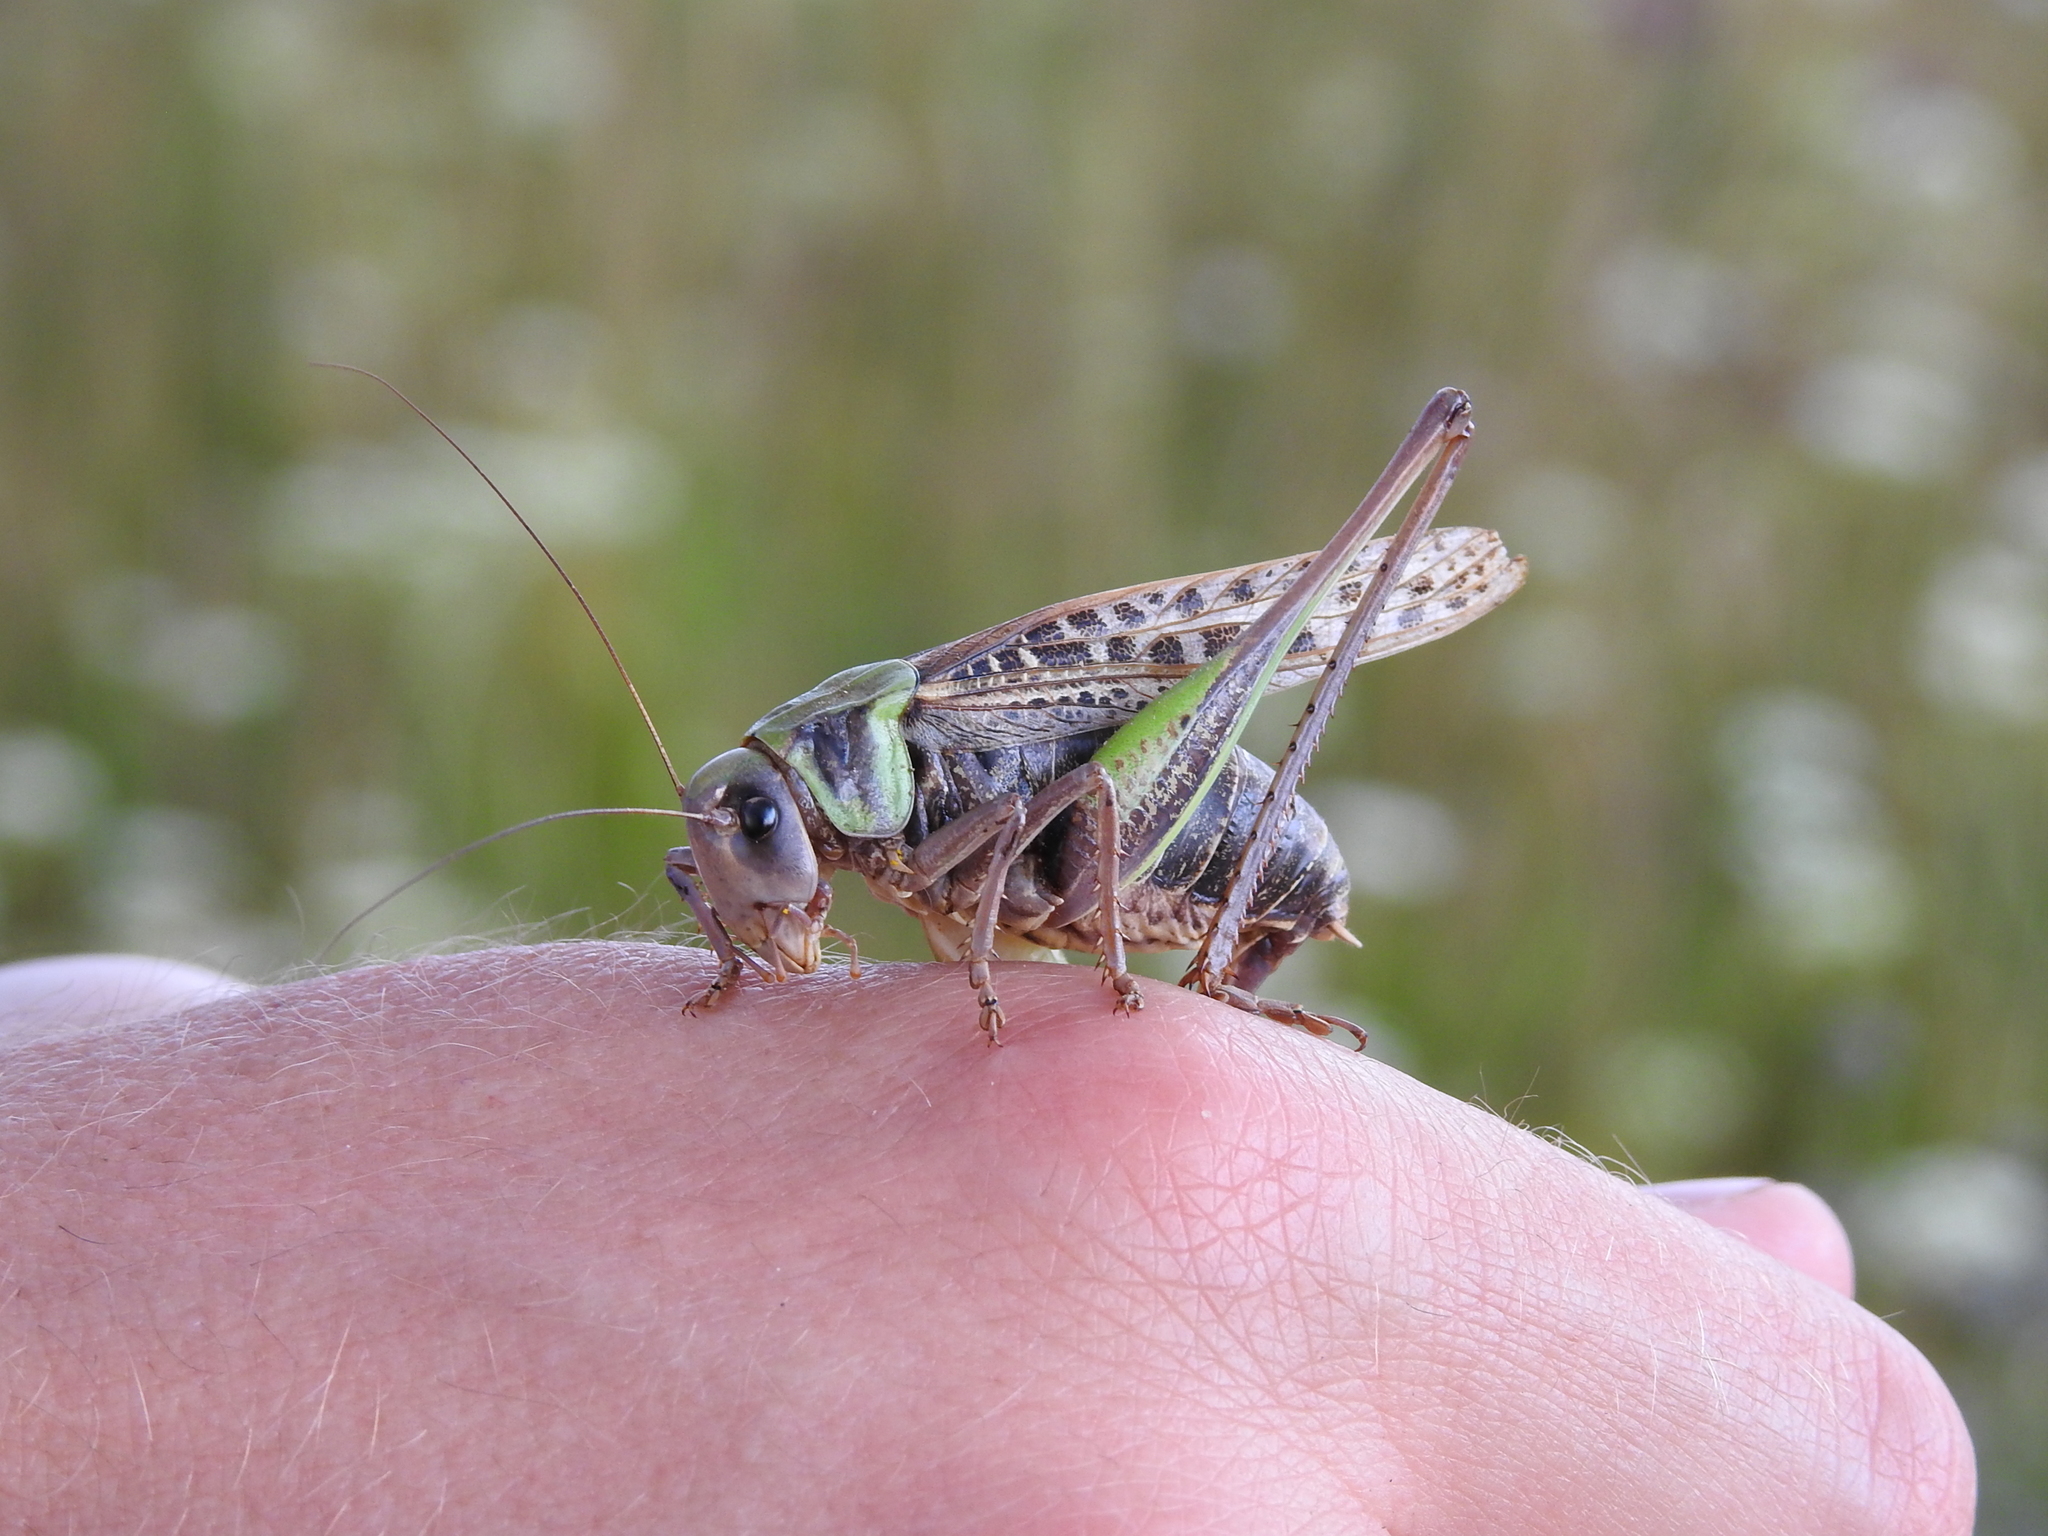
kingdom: Animalia
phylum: Arthropoda
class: Insecta
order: Orthoptera
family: Tettigoniidae
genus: Decticus
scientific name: Decticus verrucivorus
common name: Wart-biter
